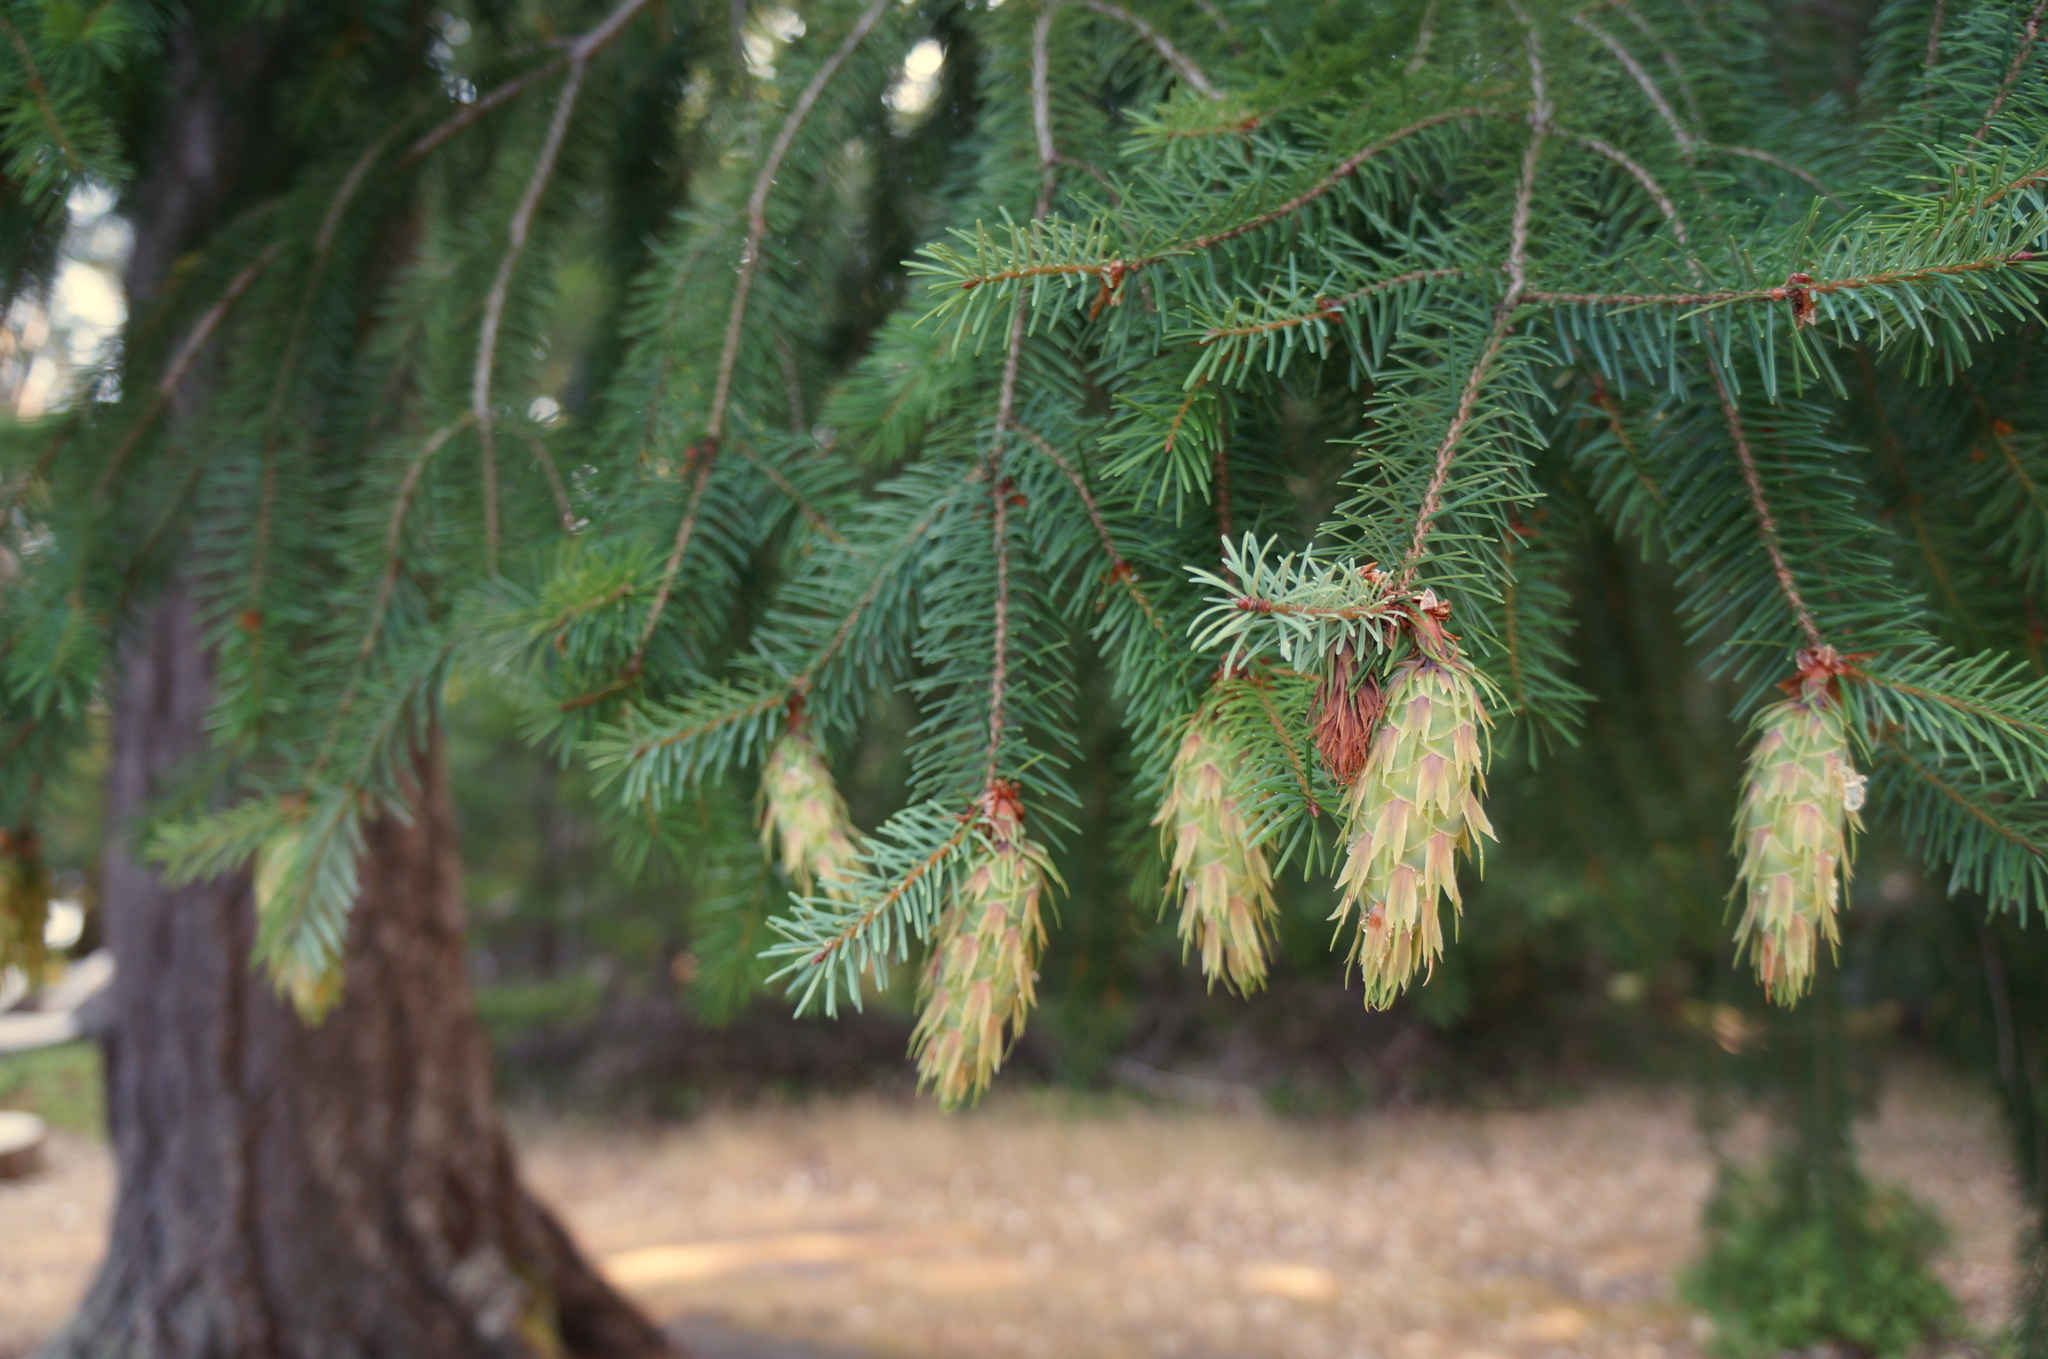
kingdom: Plantae
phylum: Tracheophyta
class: Pinopsida
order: Pinales
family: Pinaceae
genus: Pseudotsuga
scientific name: Pseudotsuga menziesii
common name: Douglas fir
